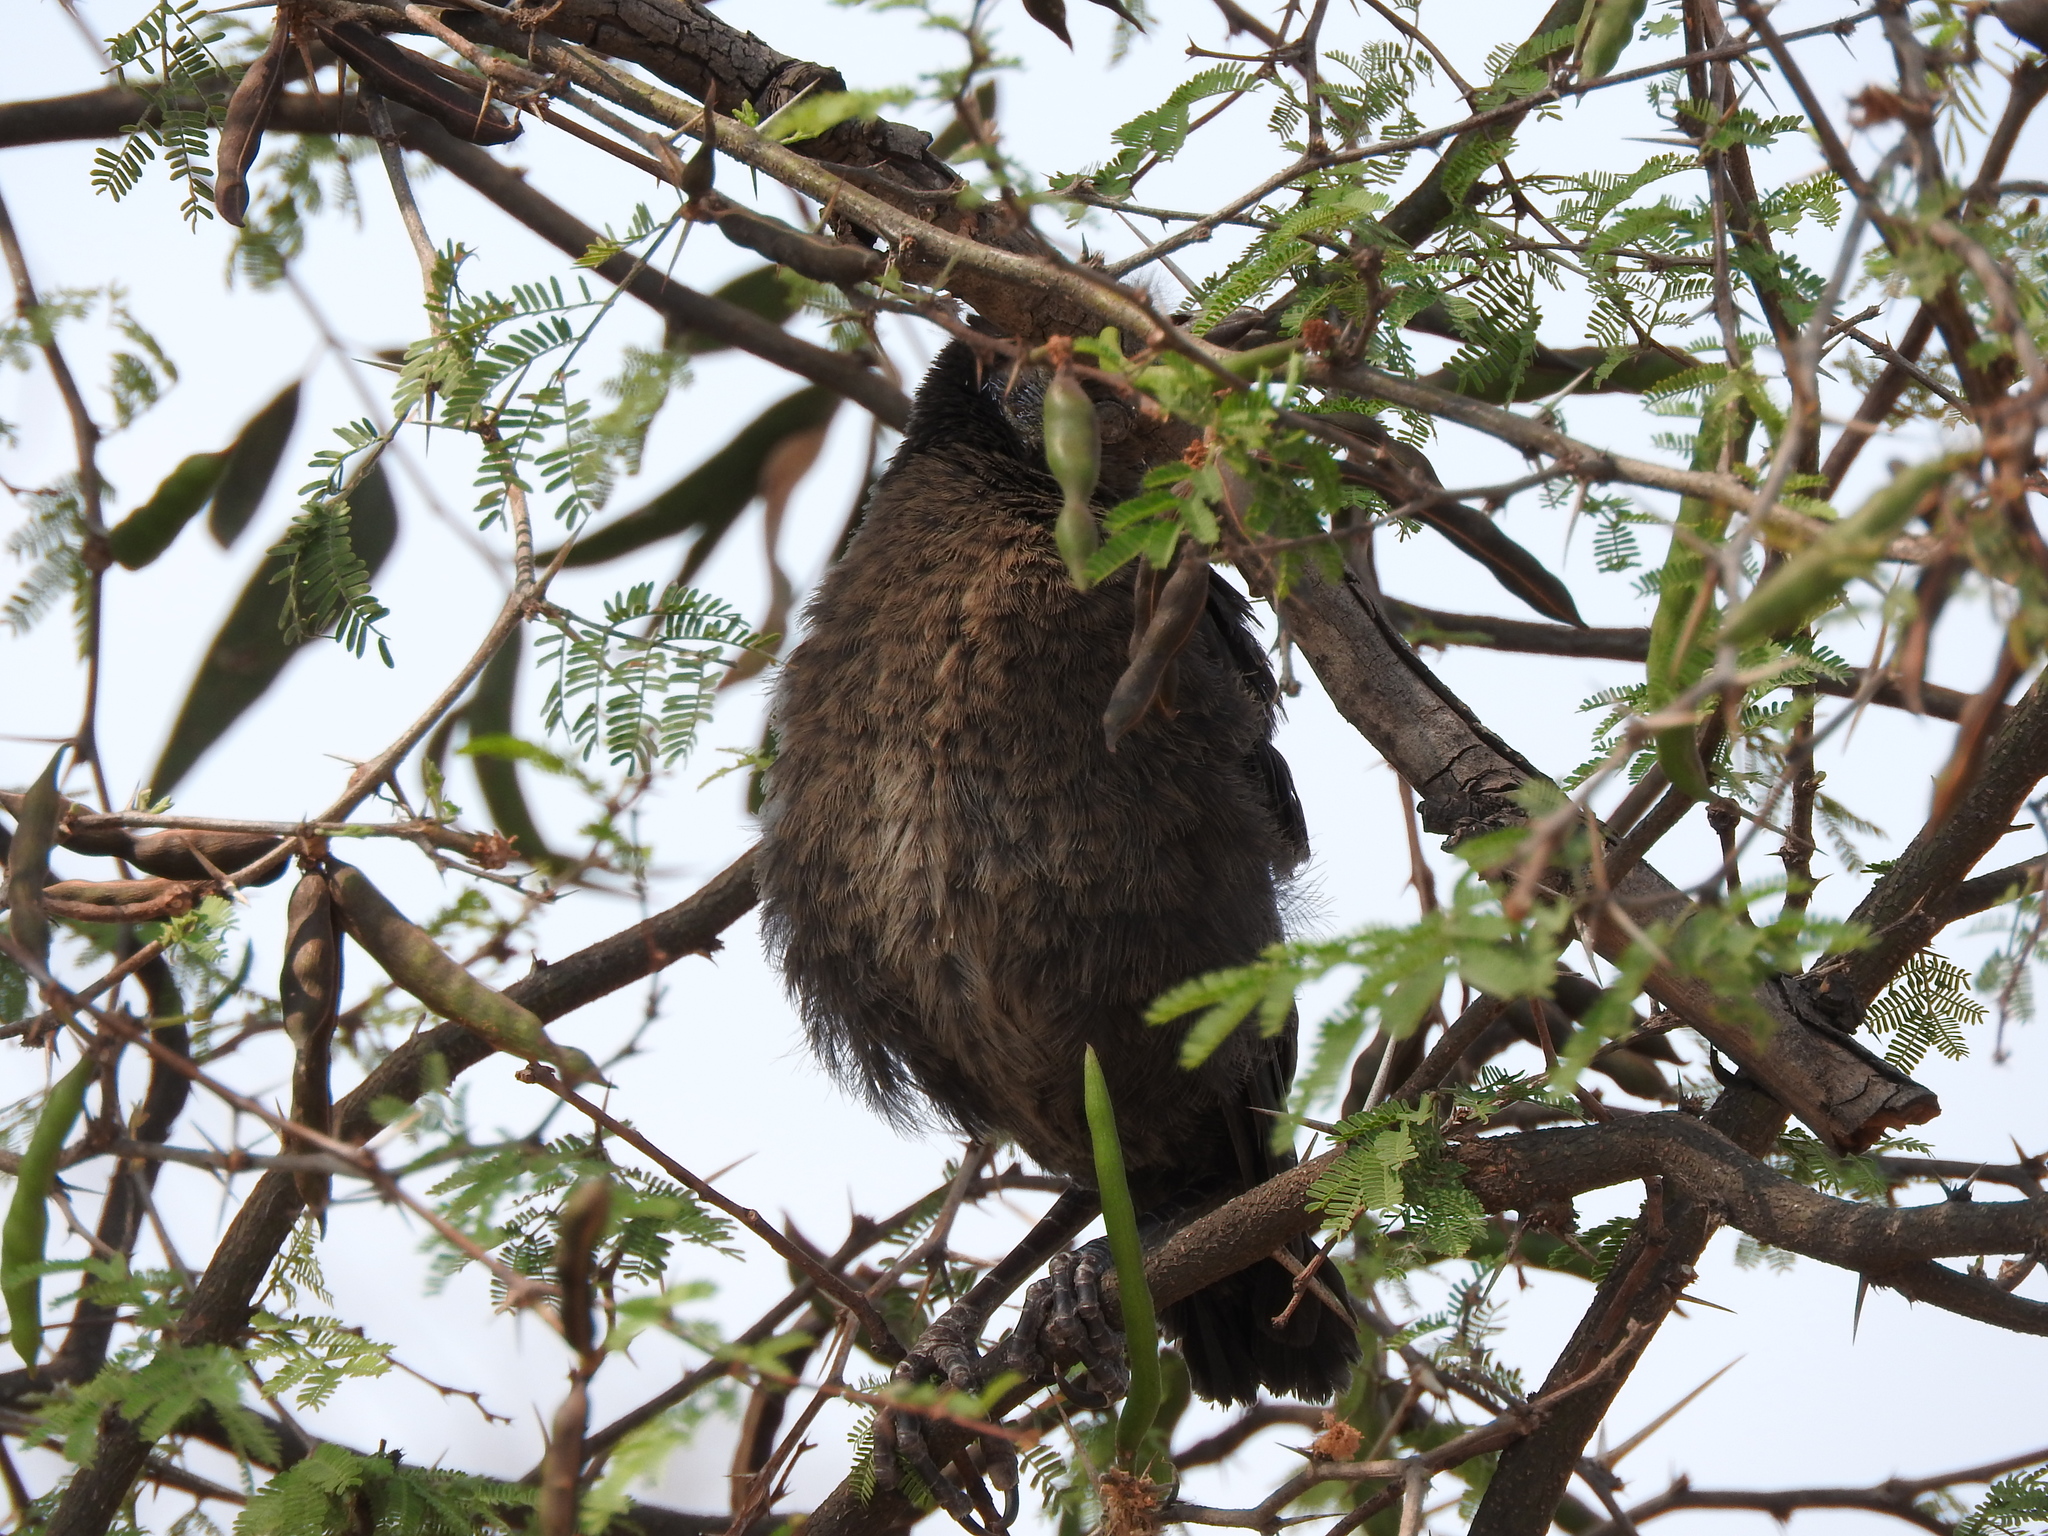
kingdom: Animalia
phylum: Chordata
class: Aves
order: Passeriformes
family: Icteridae
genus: Quiscalus
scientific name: Quiscalus mexicanus
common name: Great-tailed grackle
